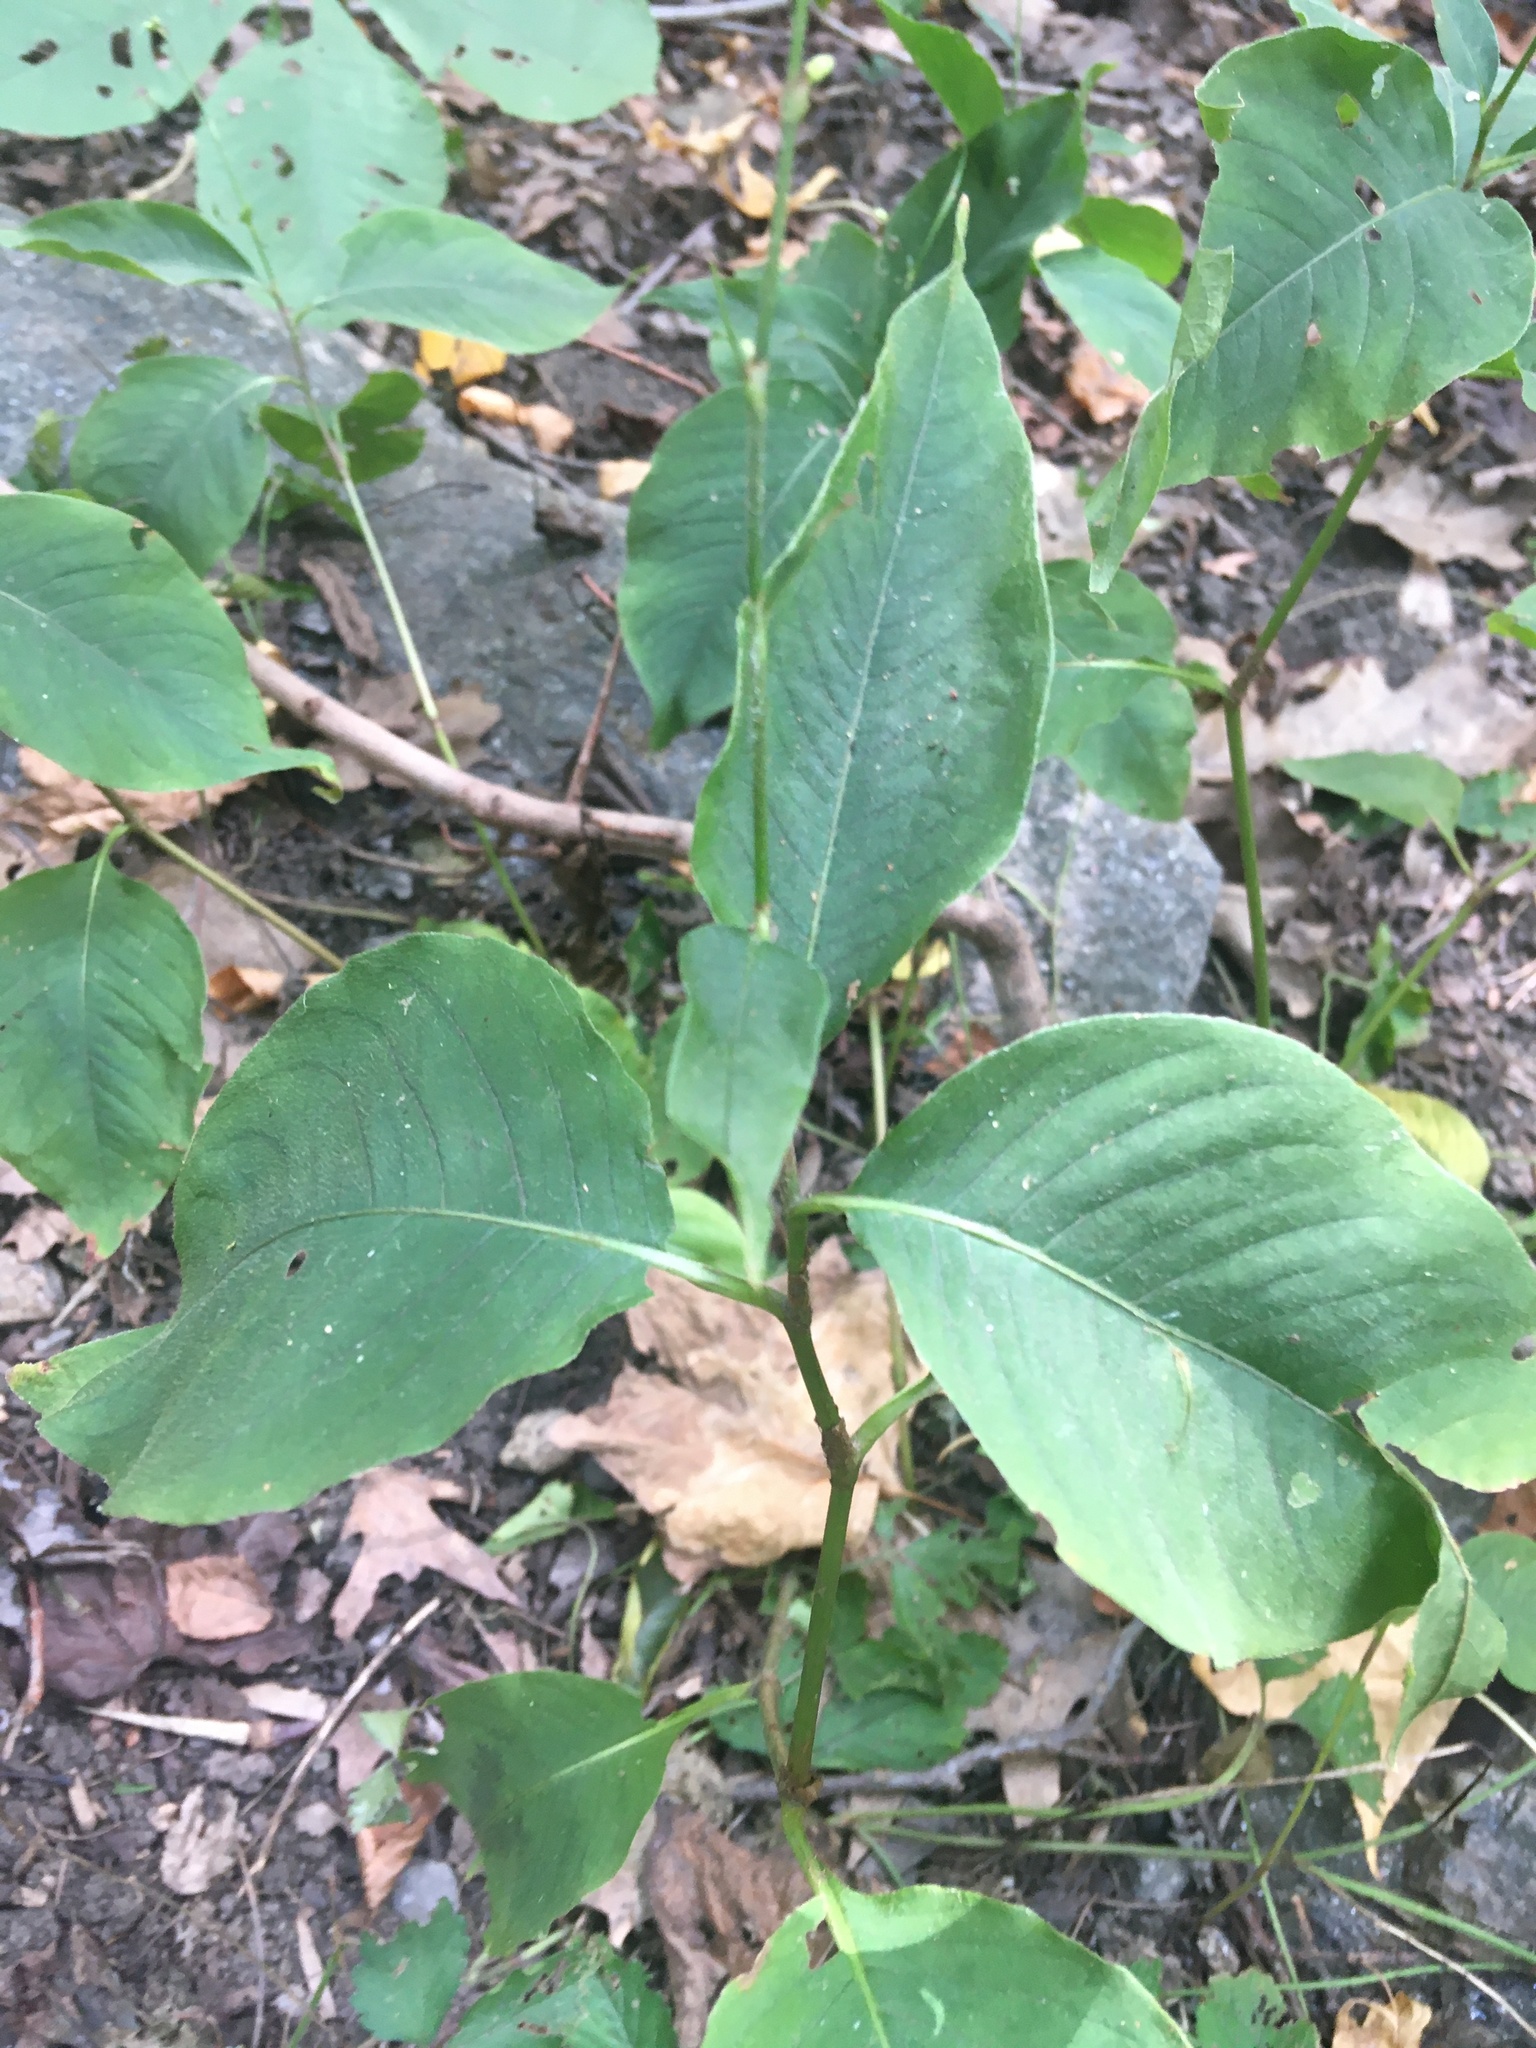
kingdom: Plantae
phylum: Tracheophyta
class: Magnoliopsida
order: Caryophyllales
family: Polygonaceae
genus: Persicaria
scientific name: Persicaria virginiana
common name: Jumpseed
